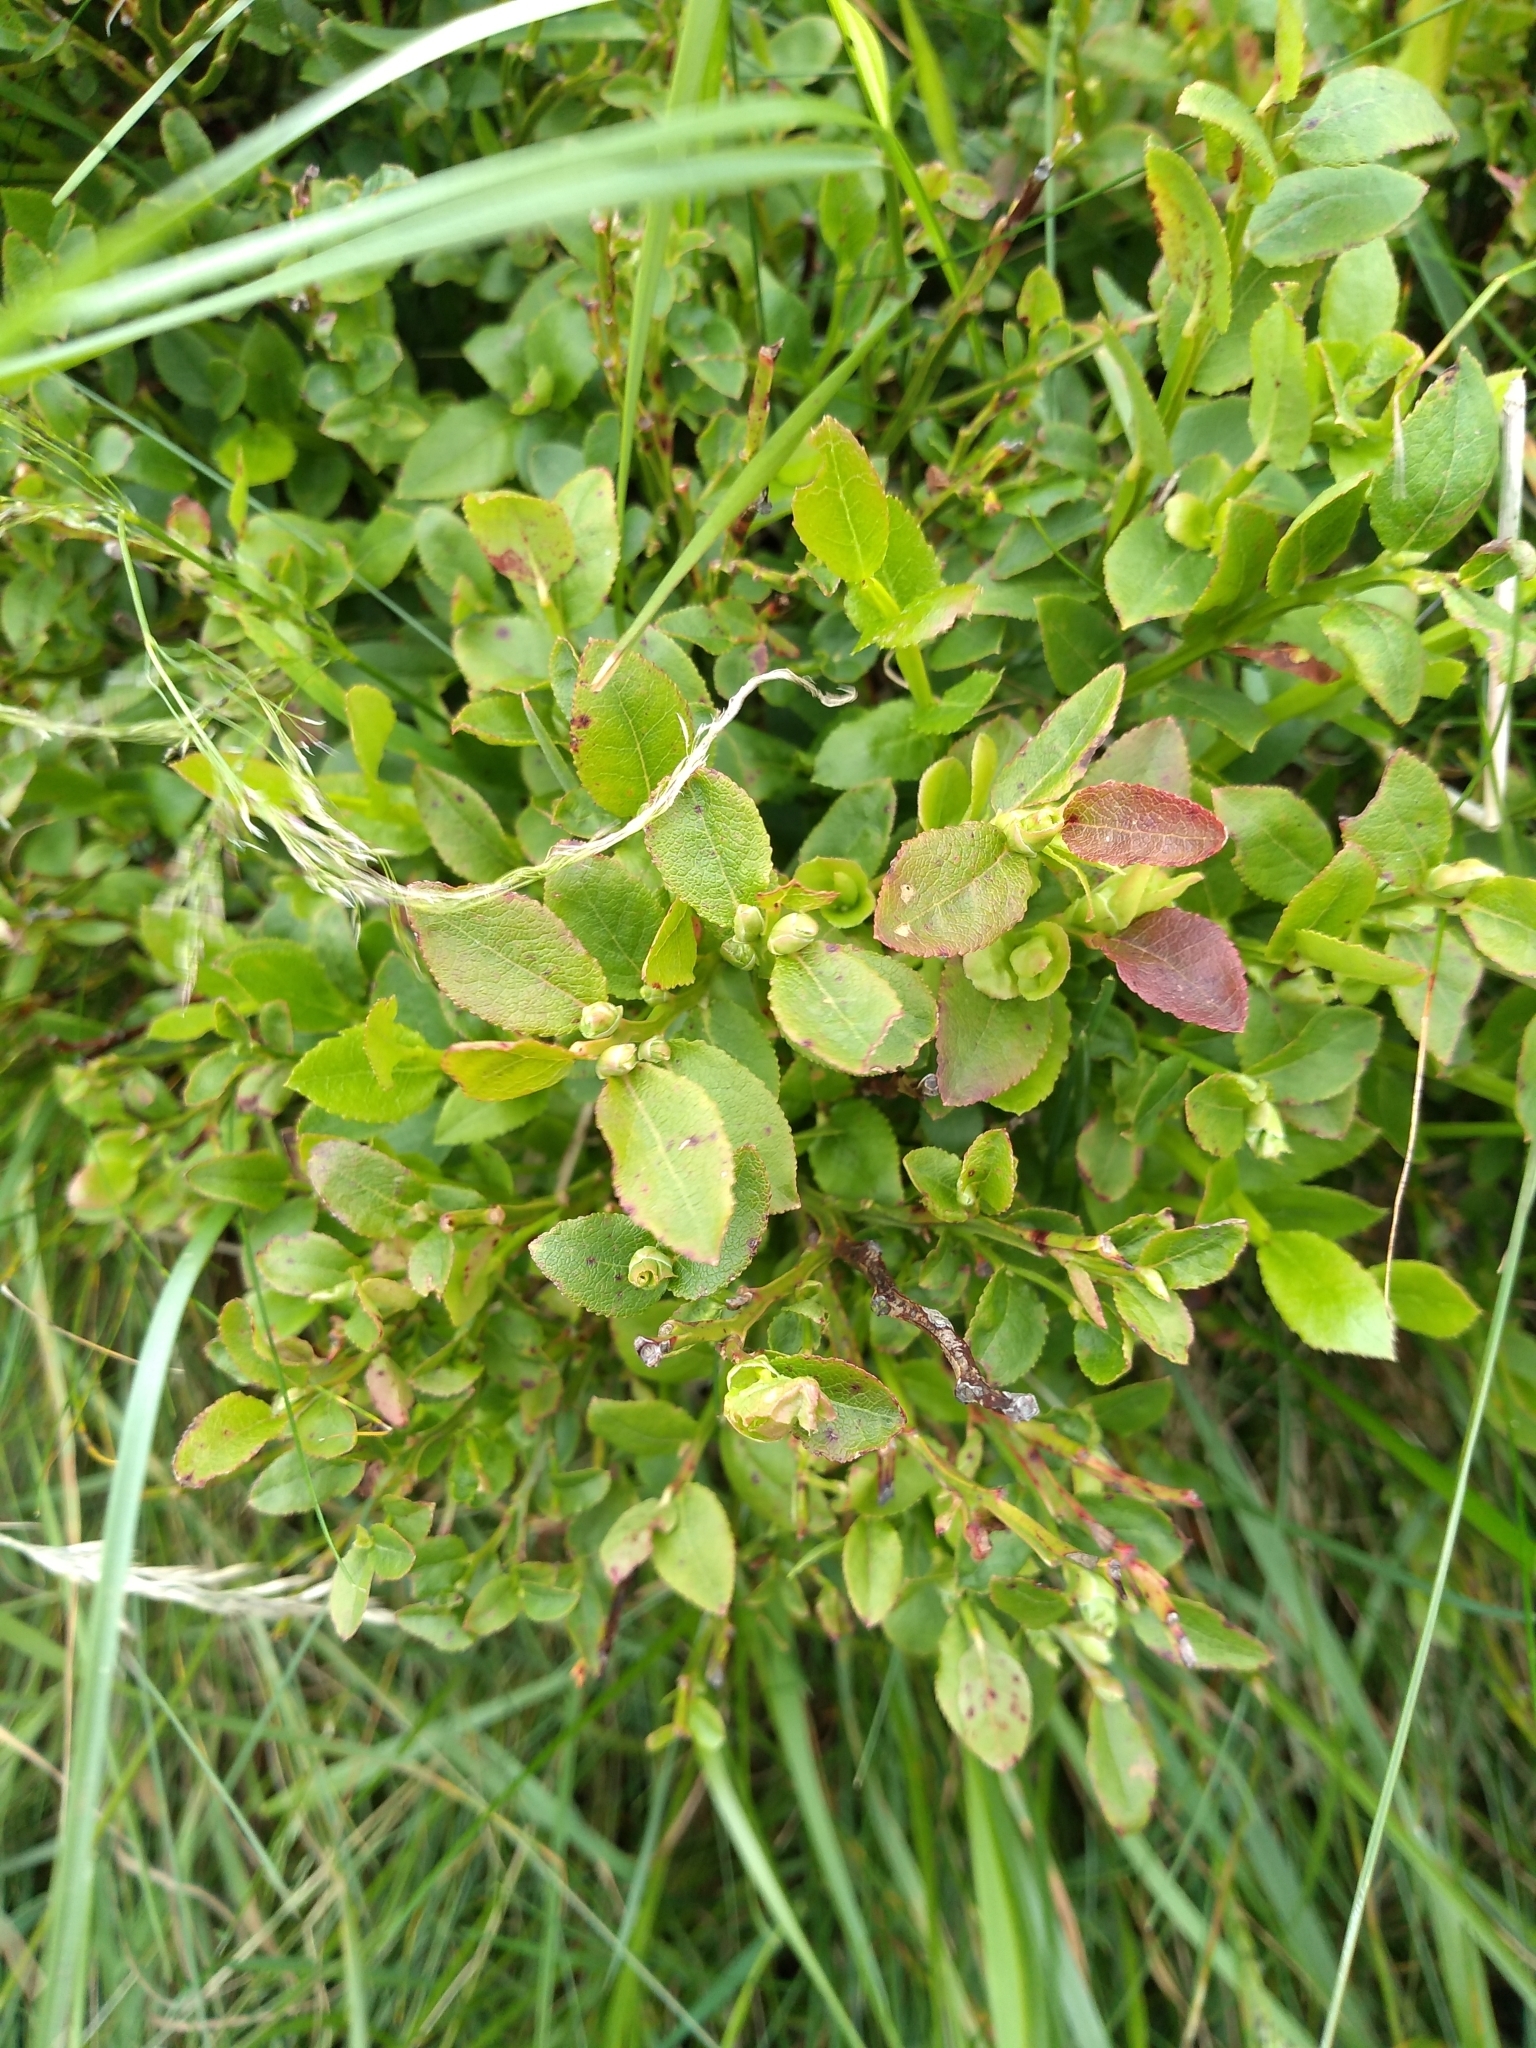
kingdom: Plantae
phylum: Tracheophyta
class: Magnoliopsida
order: Ericales
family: Ericaceae
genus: Vaccinium
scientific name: Vaccinium myrtillus
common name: Bilberry
